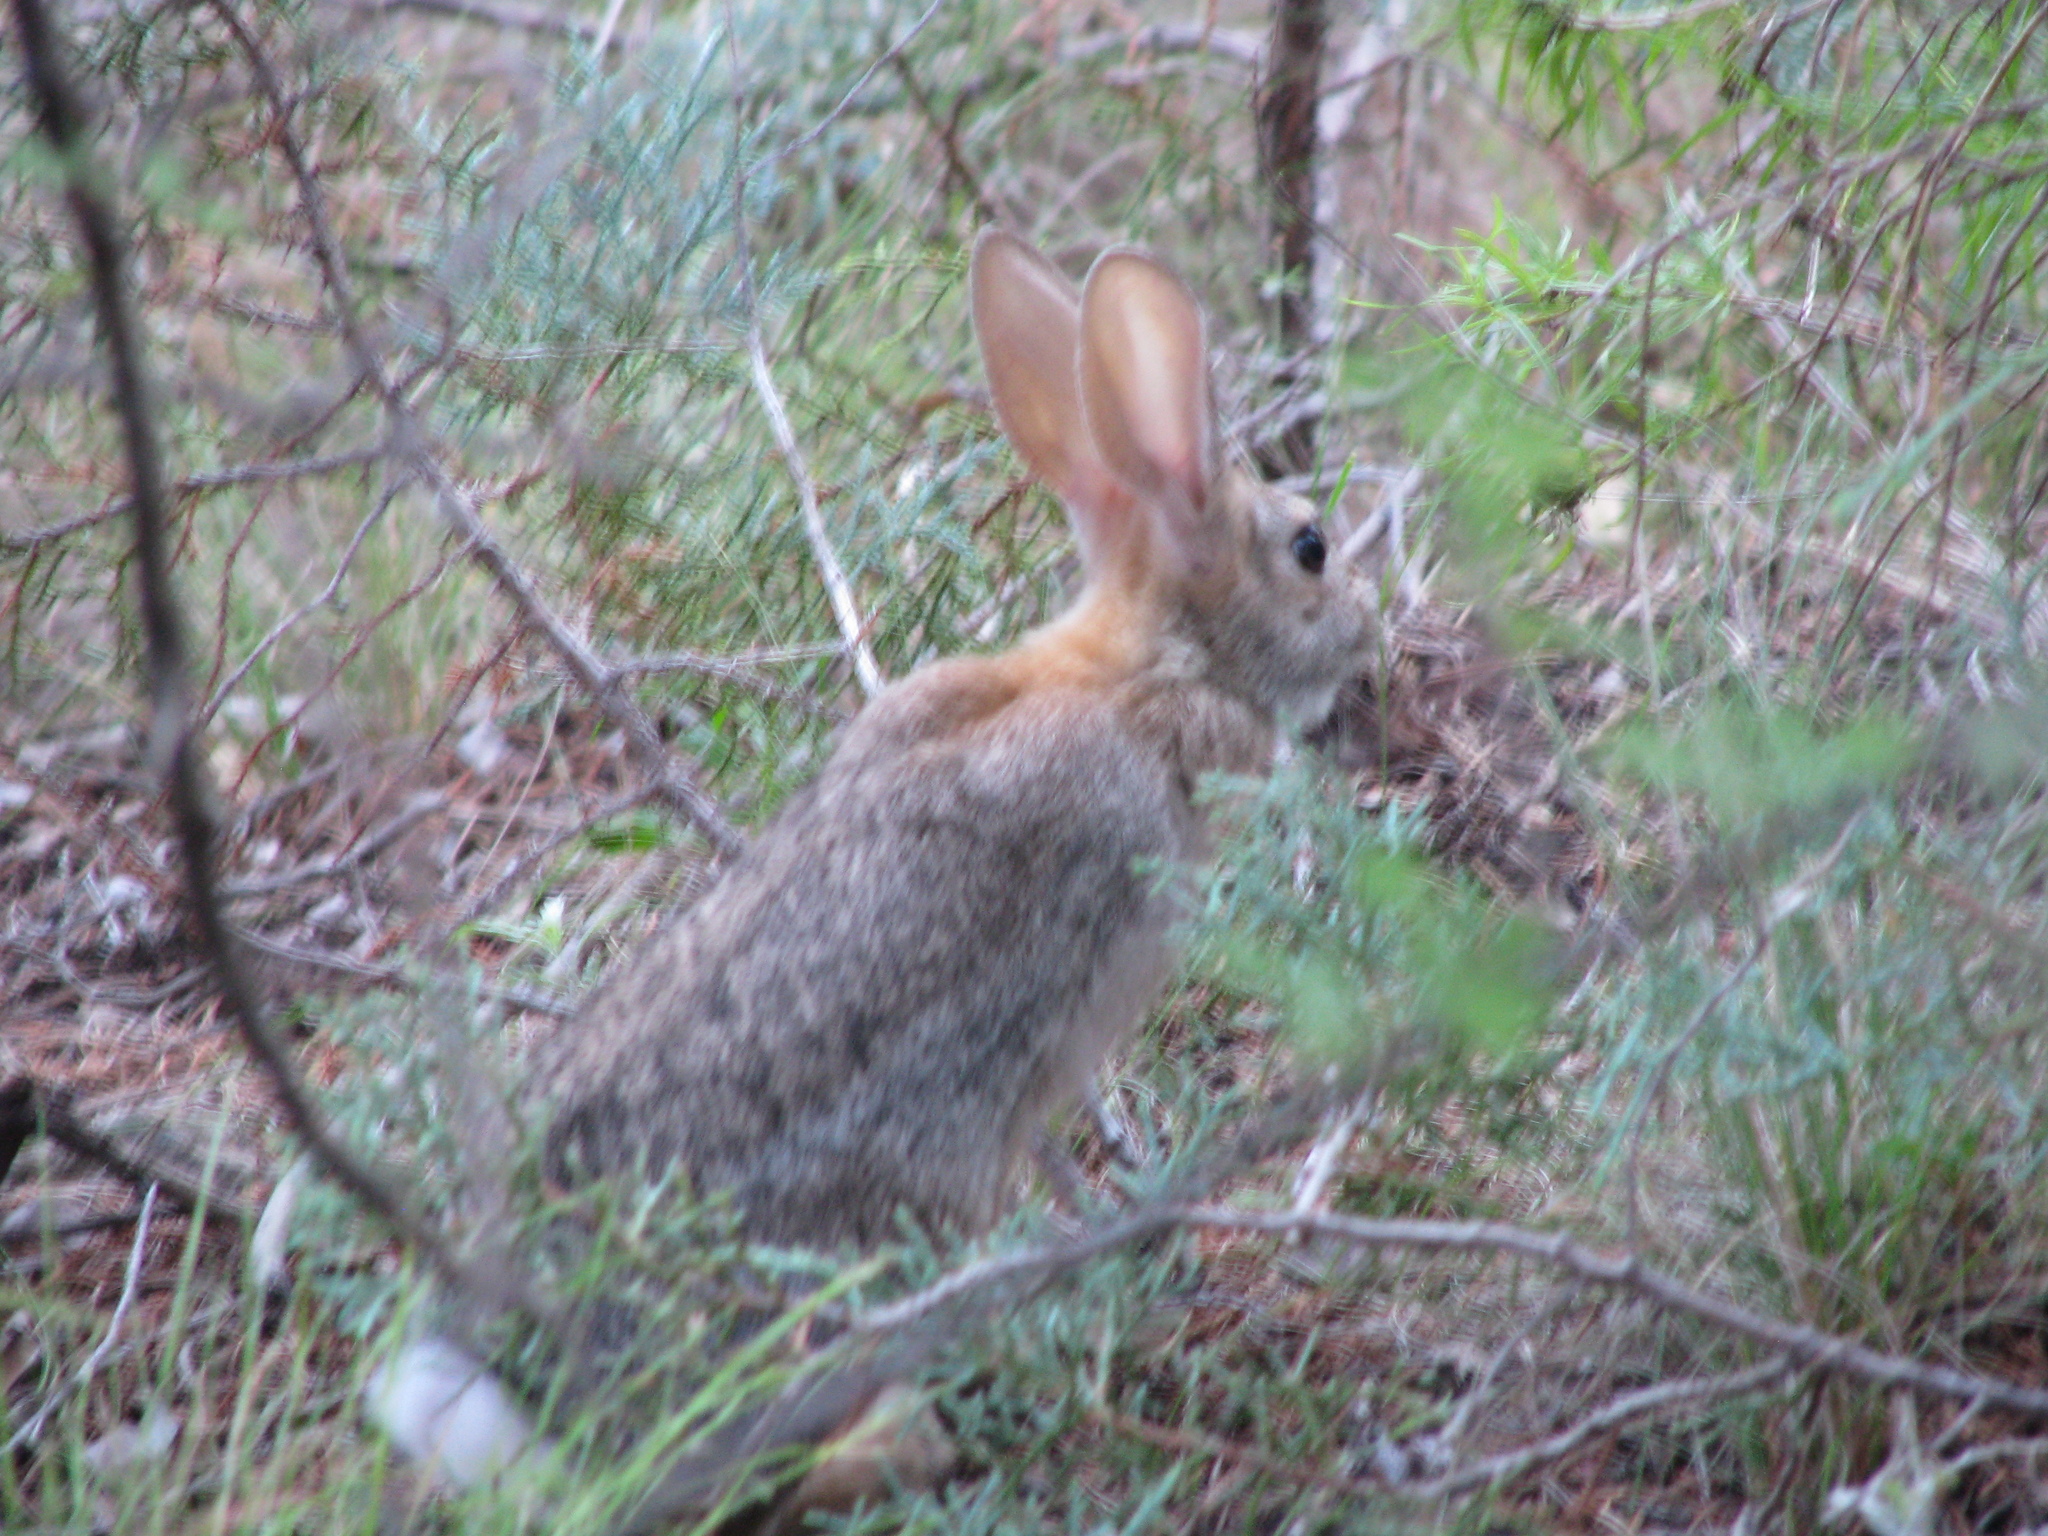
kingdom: Animalia
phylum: Chordata
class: Mammalia
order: Lagomorpha
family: Leporidae
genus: Sylvilagus
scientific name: Sylvilagus audubonii
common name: Desert cottontail
